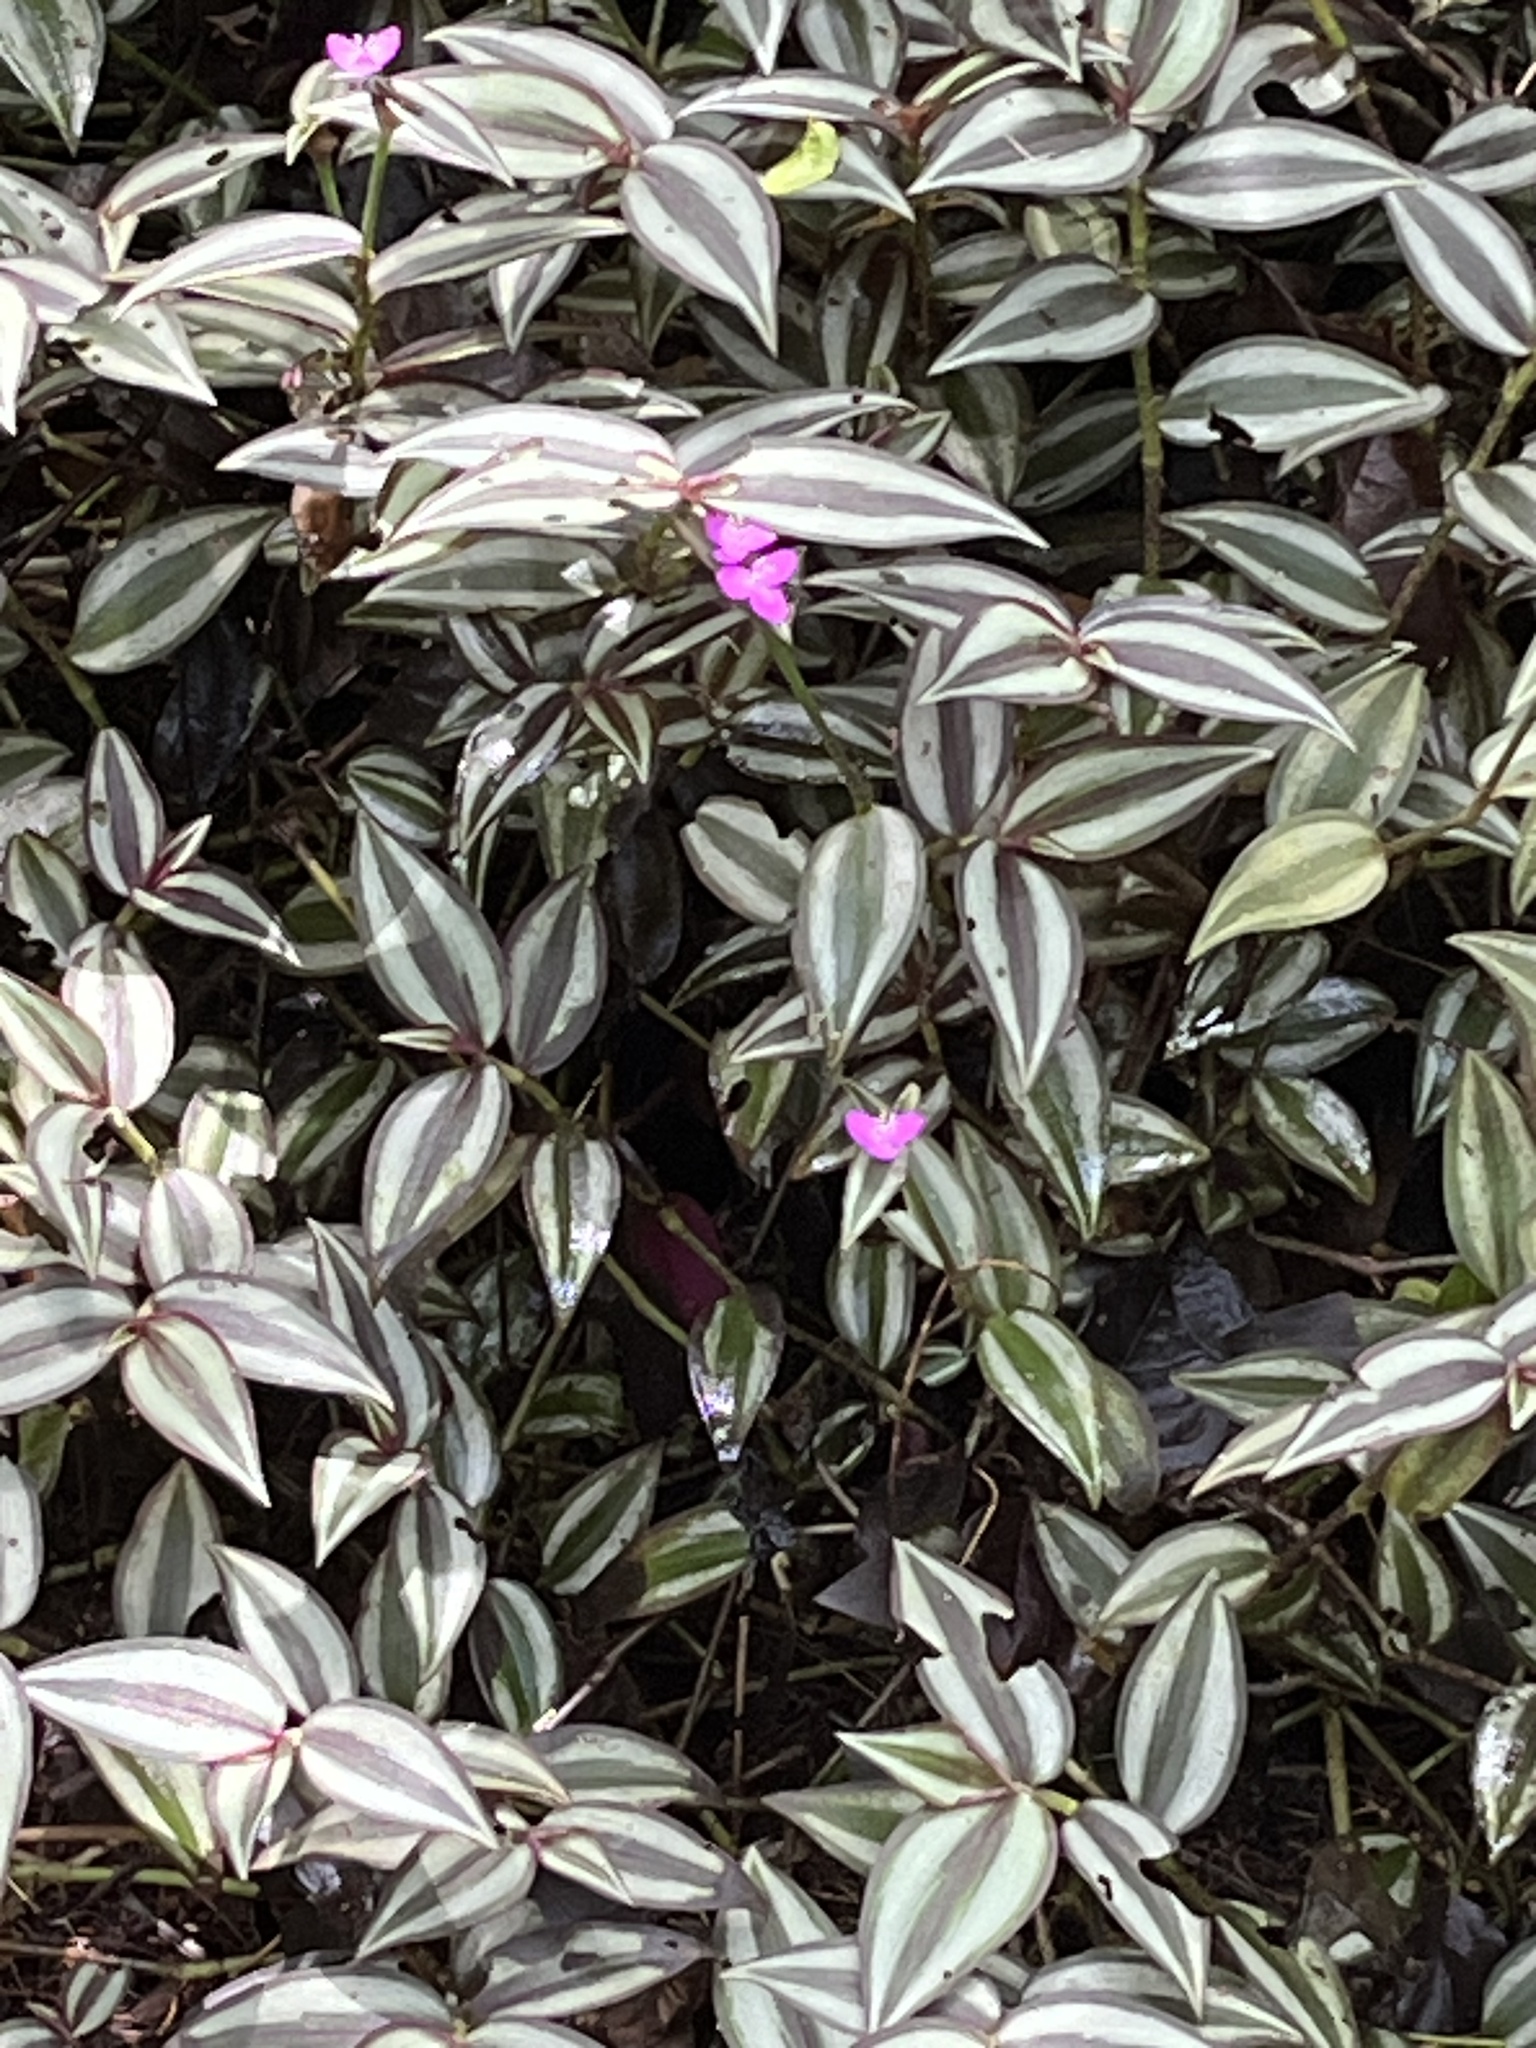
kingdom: Plantae
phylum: Tracheophyta
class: Liliopsida
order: Commelinales
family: Commelinaceae
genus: Tradescantia
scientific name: Tradescantia zebrina
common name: Inchplant
